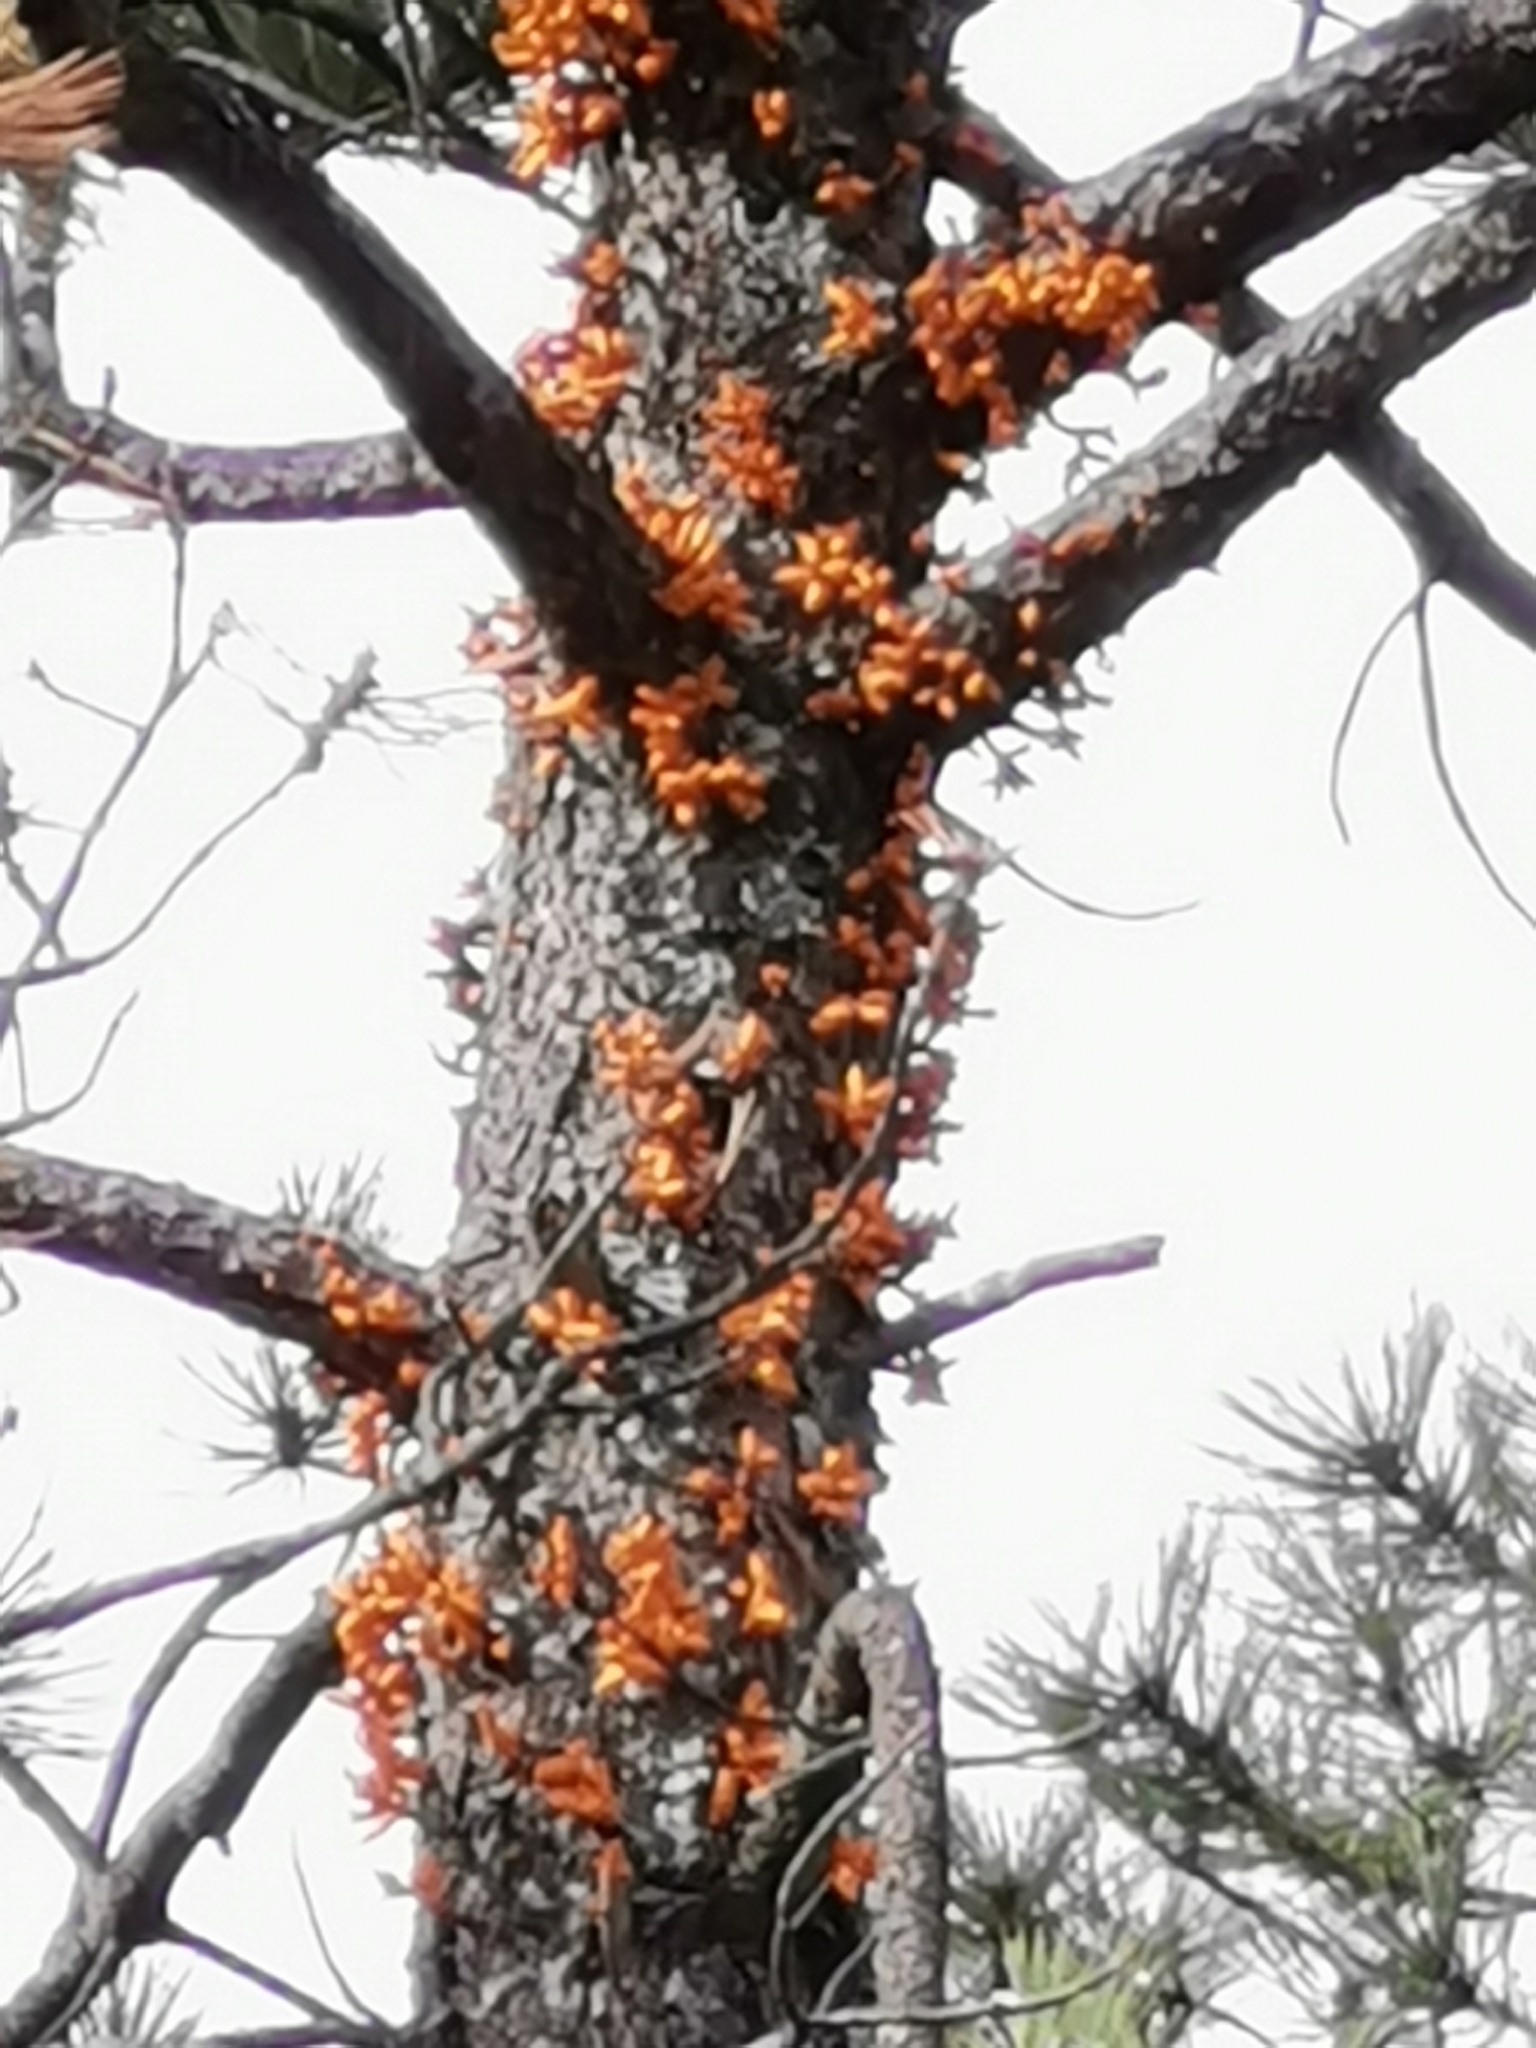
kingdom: Plantae
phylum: Tracheophyta
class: Magnoliopsida
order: Santalales
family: Viscaceae
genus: Arceuthobium
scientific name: Arceuthobium verticilliflora
